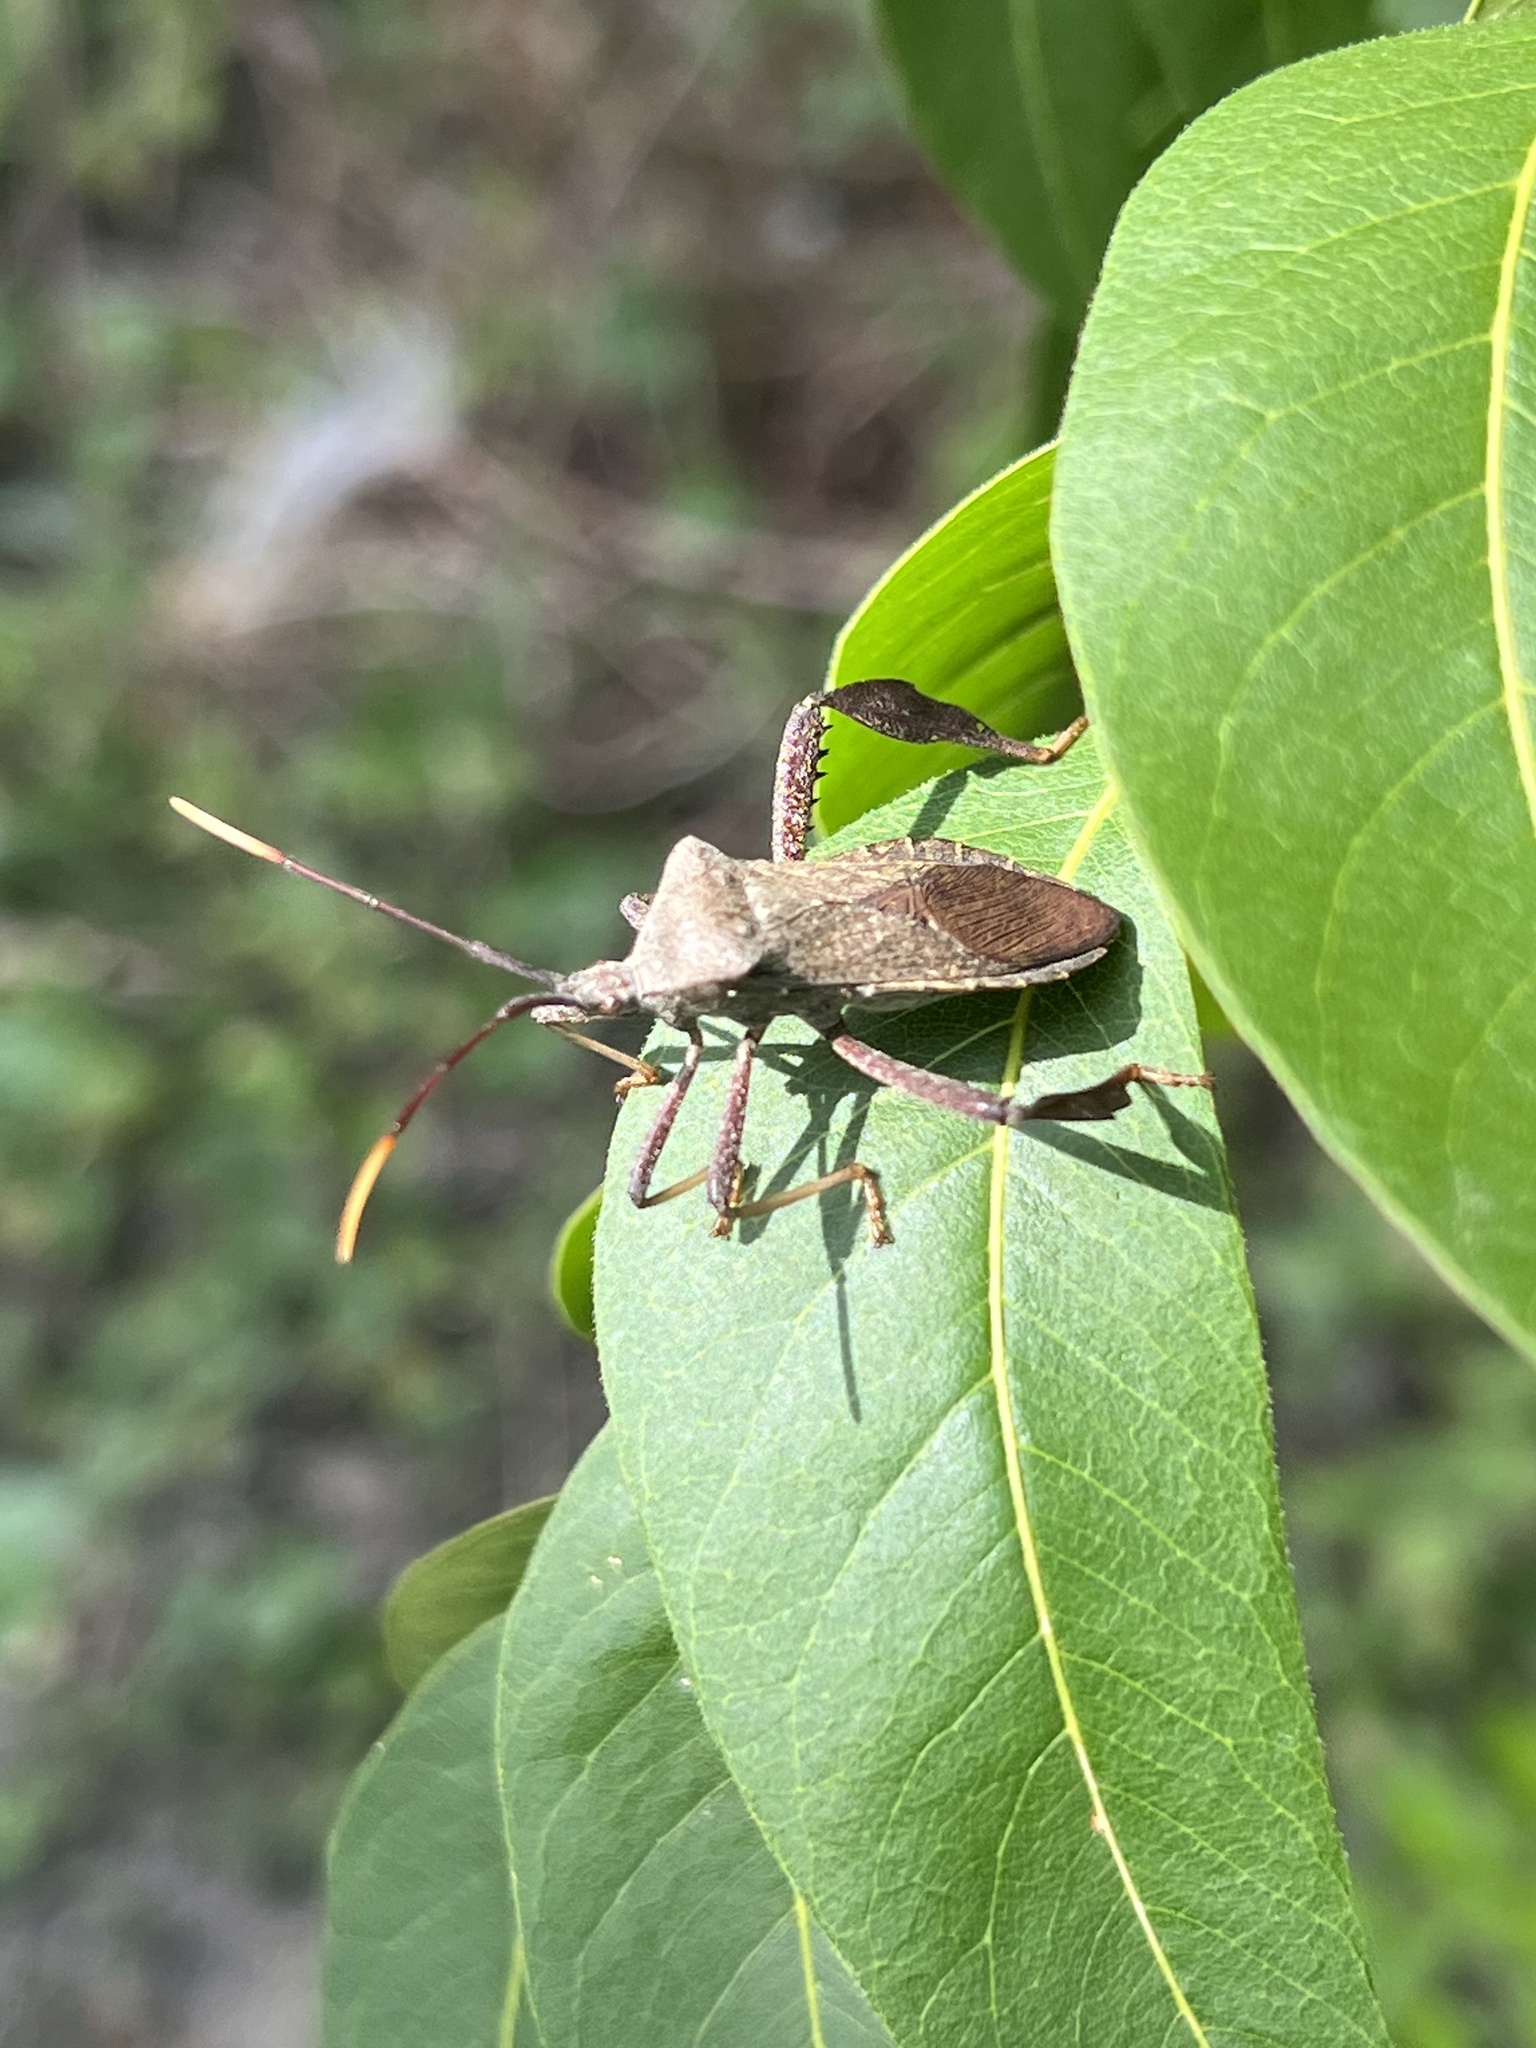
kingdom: Animalia
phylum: Arthropoda
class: Insecta
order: Hemiptera
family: Coreidae
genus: Acanthocephala
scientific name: Acanthocephala terminalis
